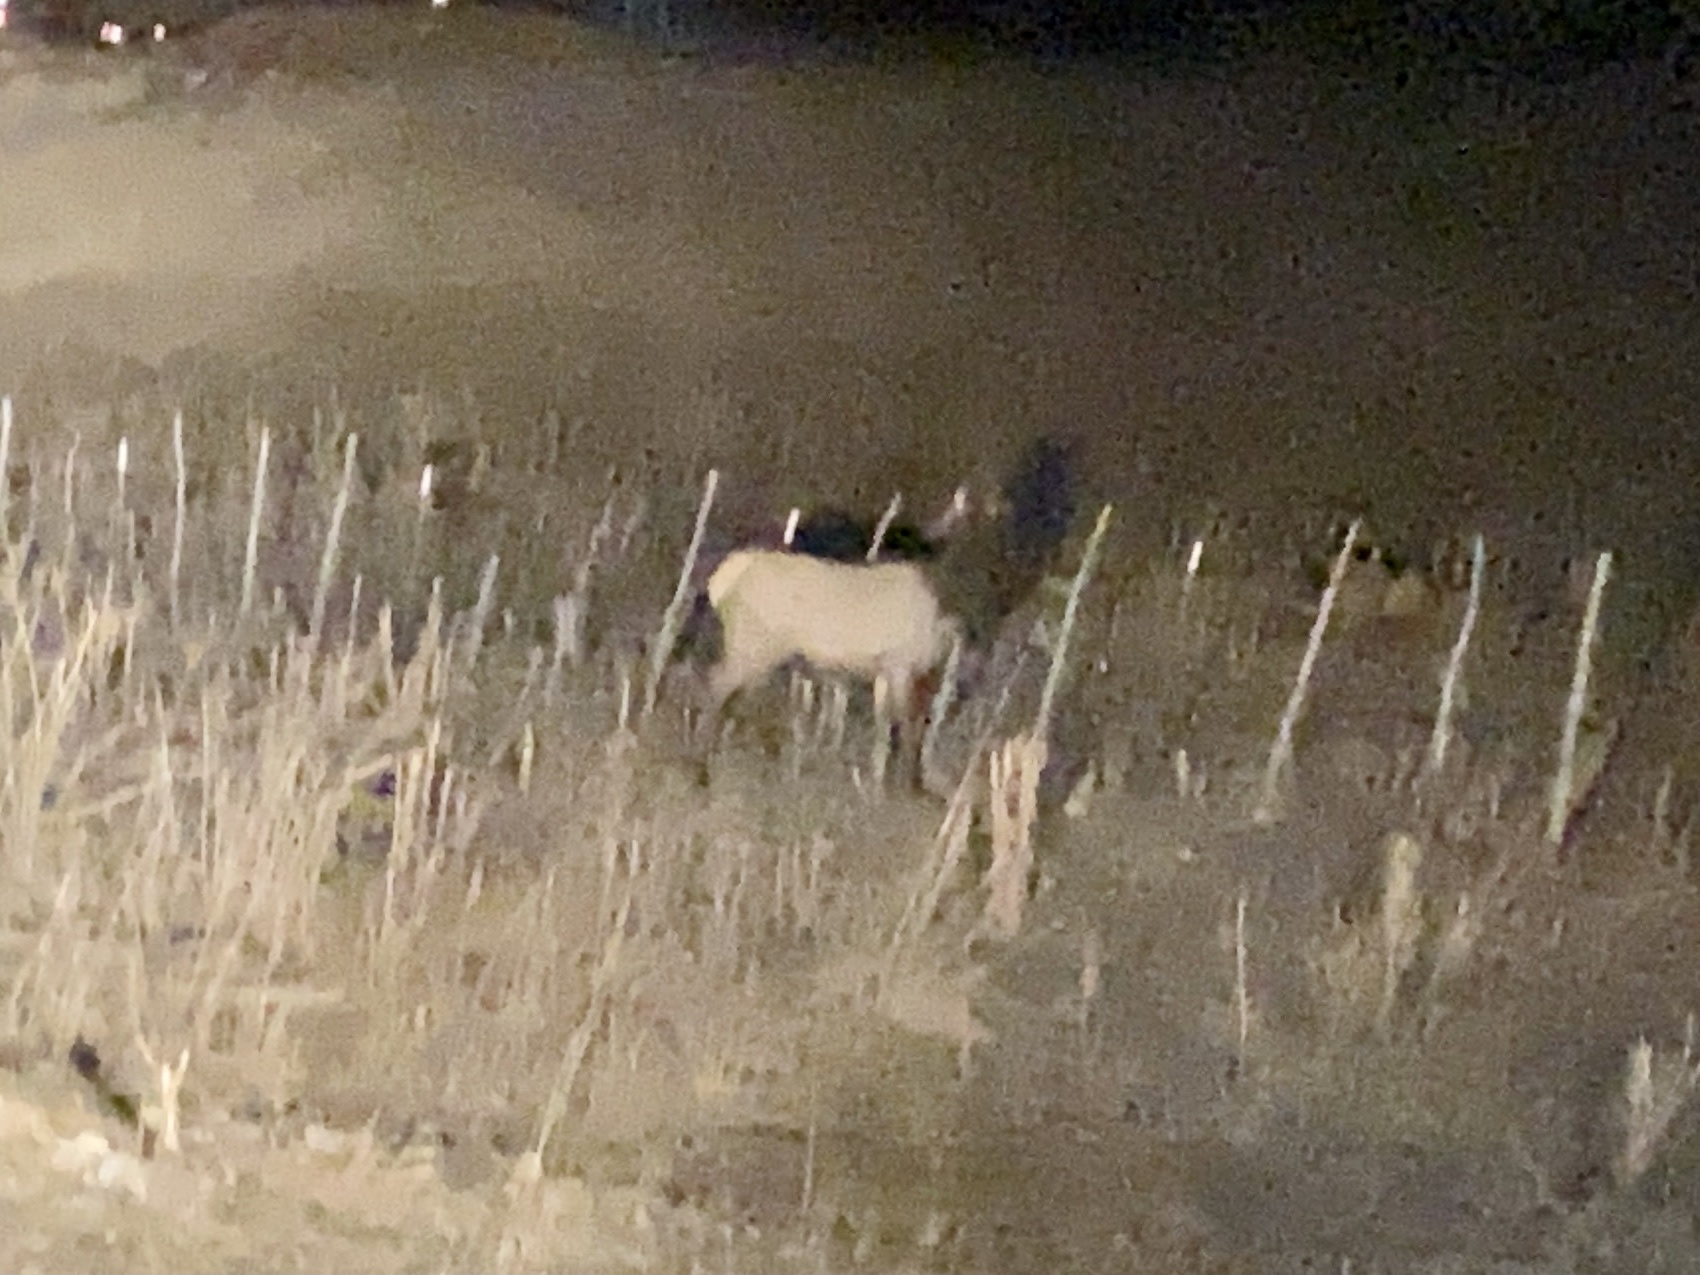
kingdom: Animalia
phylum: Chordata
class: Mammalia
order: Artiodactyla
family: Cervidae
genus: Cervus
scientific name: Cervus elaphus
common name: Red deer
